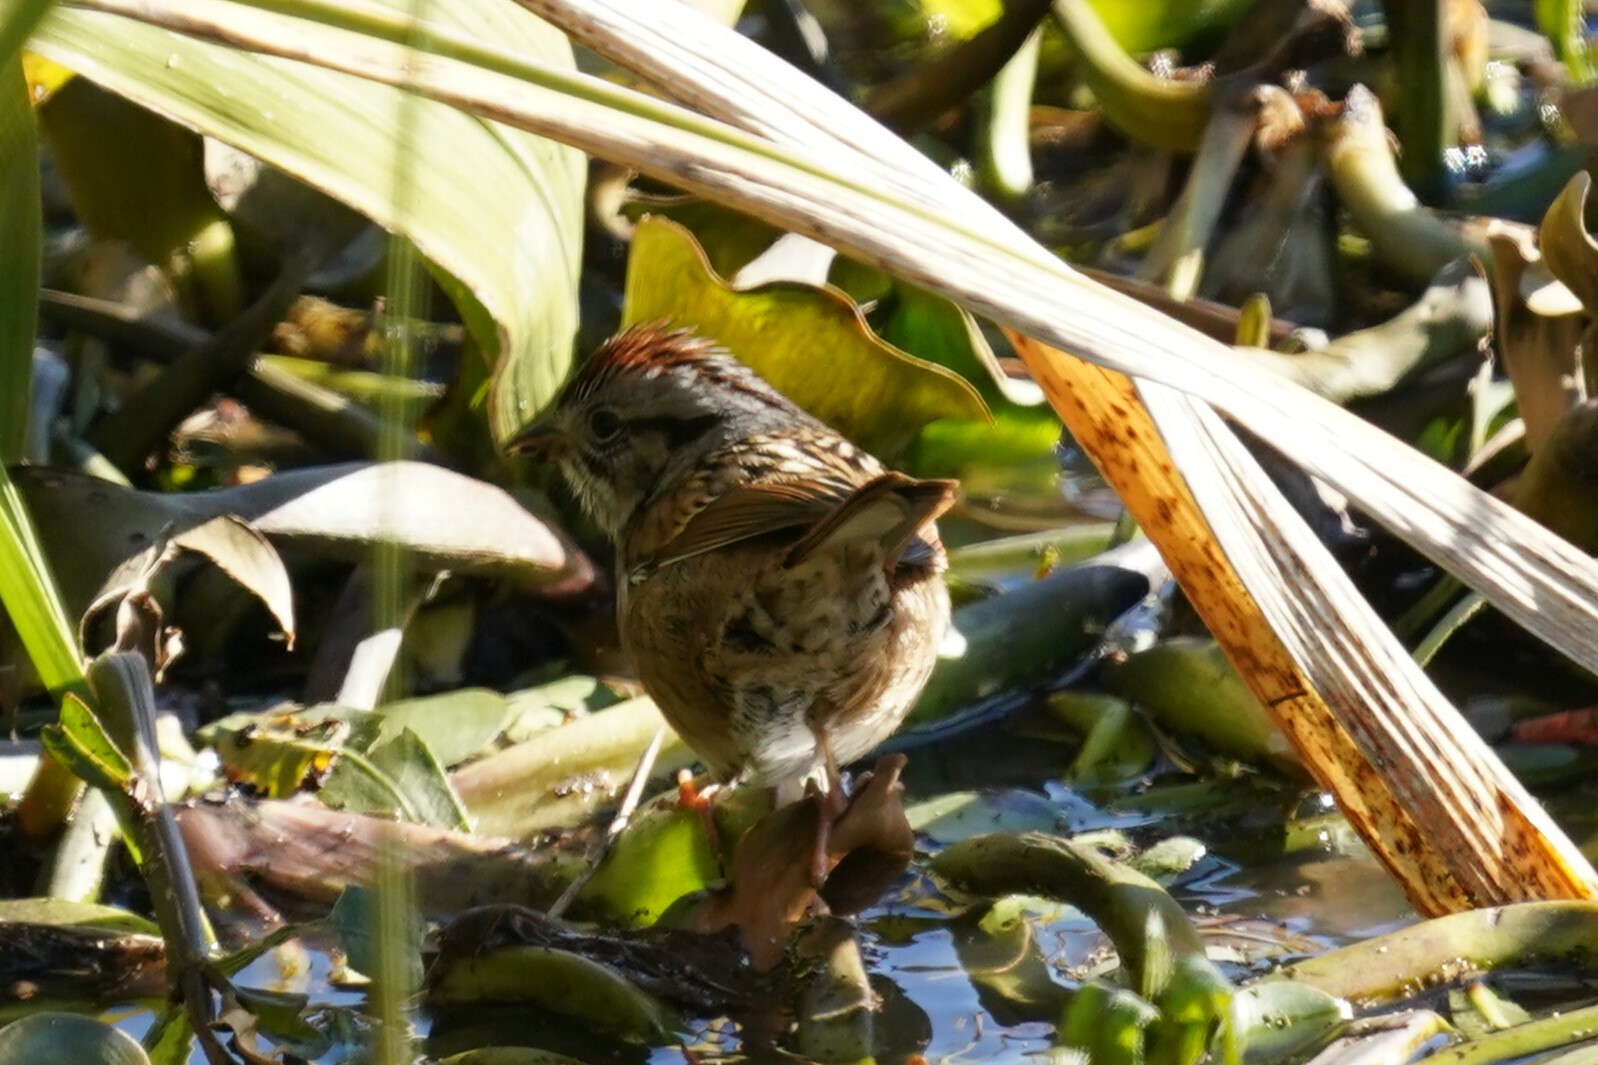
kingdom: Animalia
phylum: Chordata
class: Aves
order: Passeriformes
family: Passerellidae
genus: Melospiza
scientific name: Melospiza georgiana
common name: Swamp sparrow
